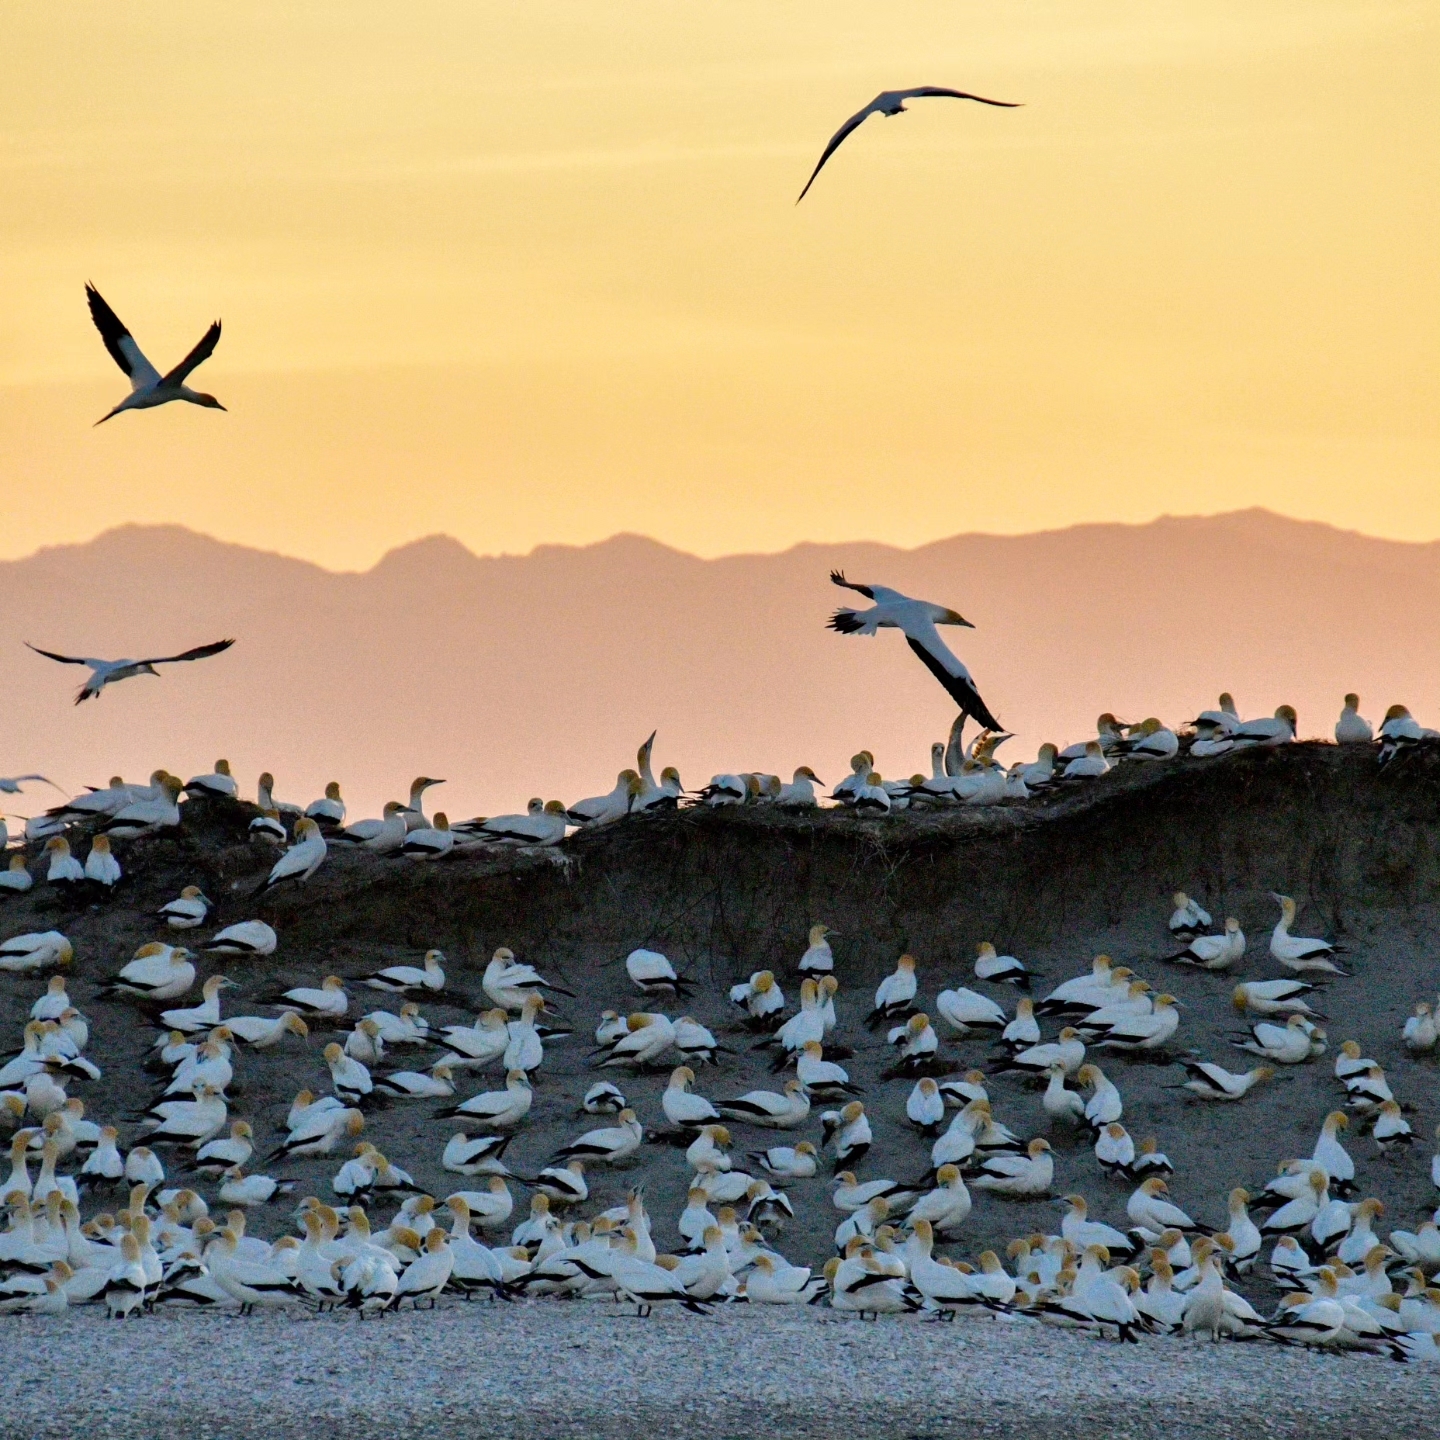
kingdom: Animalia
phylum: Chordata
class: Aves
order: Suliformes
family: Sulidae
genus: Morus
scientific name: Morus serrator
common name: Australasian gannet
